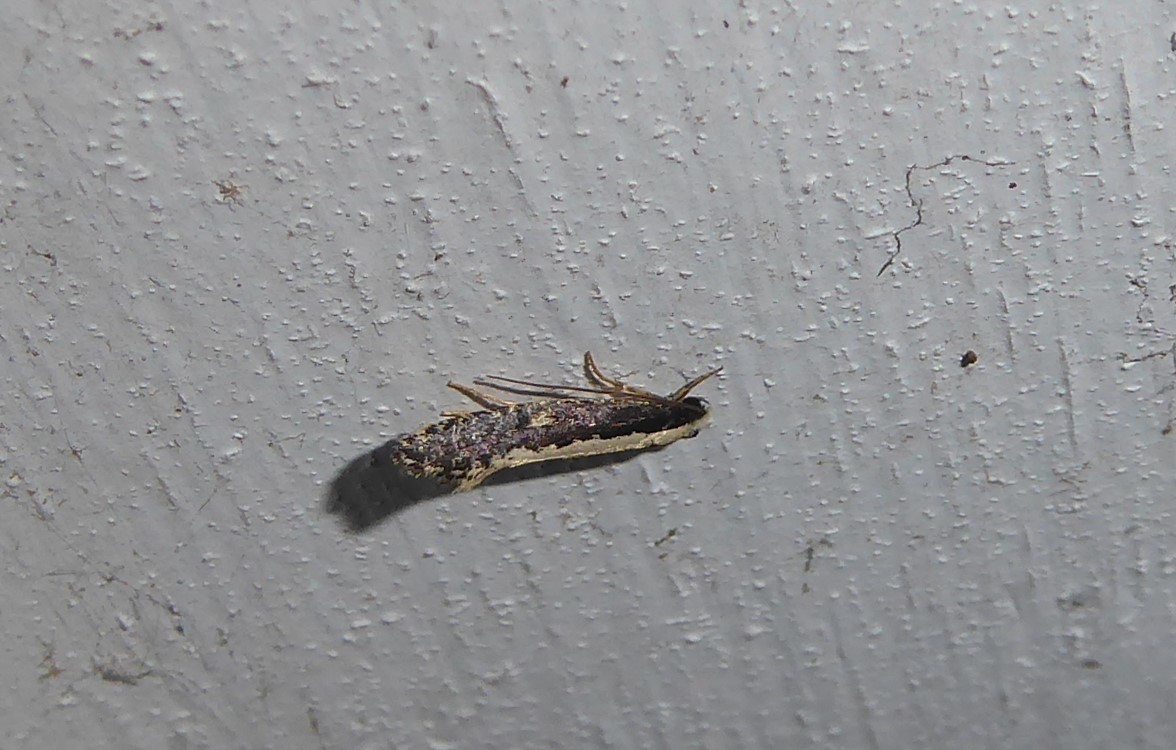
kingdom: Animalia
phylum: Arthropoda
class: Insecta
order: Lepidoptera
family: Tineidae
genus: Monopis
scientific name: Monopis ethelella
